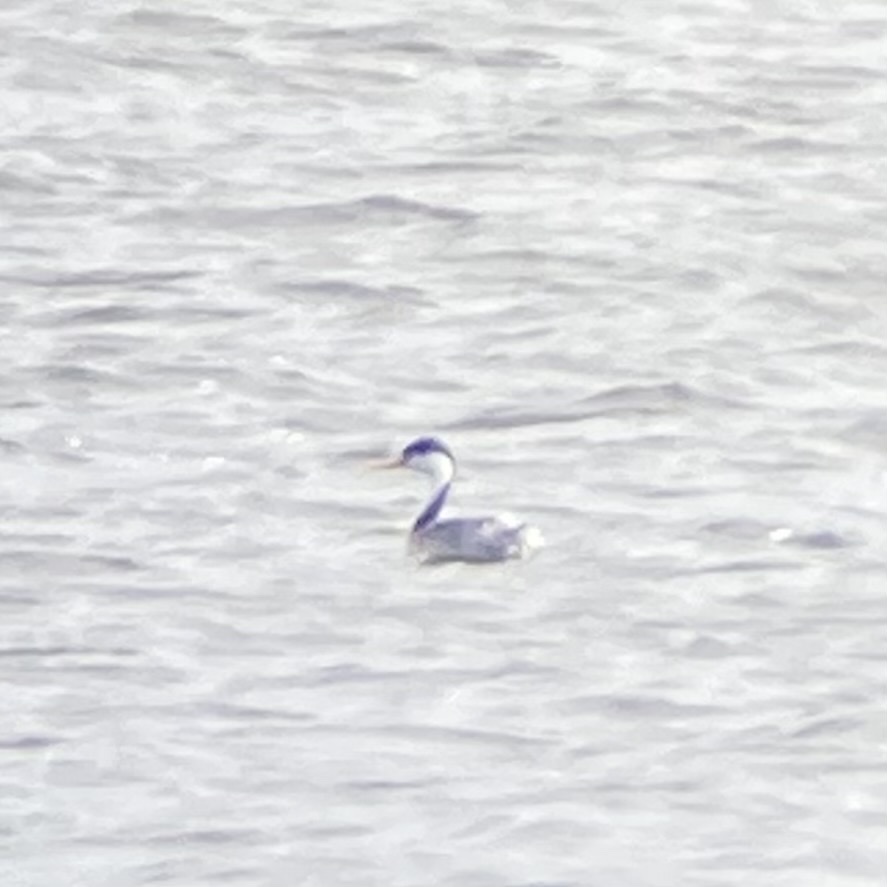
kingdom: Animalia
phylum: Chordata
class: Aves
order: Podicipediformes
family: Podicipedidae
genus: Aechmophorus
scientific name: Aechmophorus clarkii
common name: Clark's grebe
